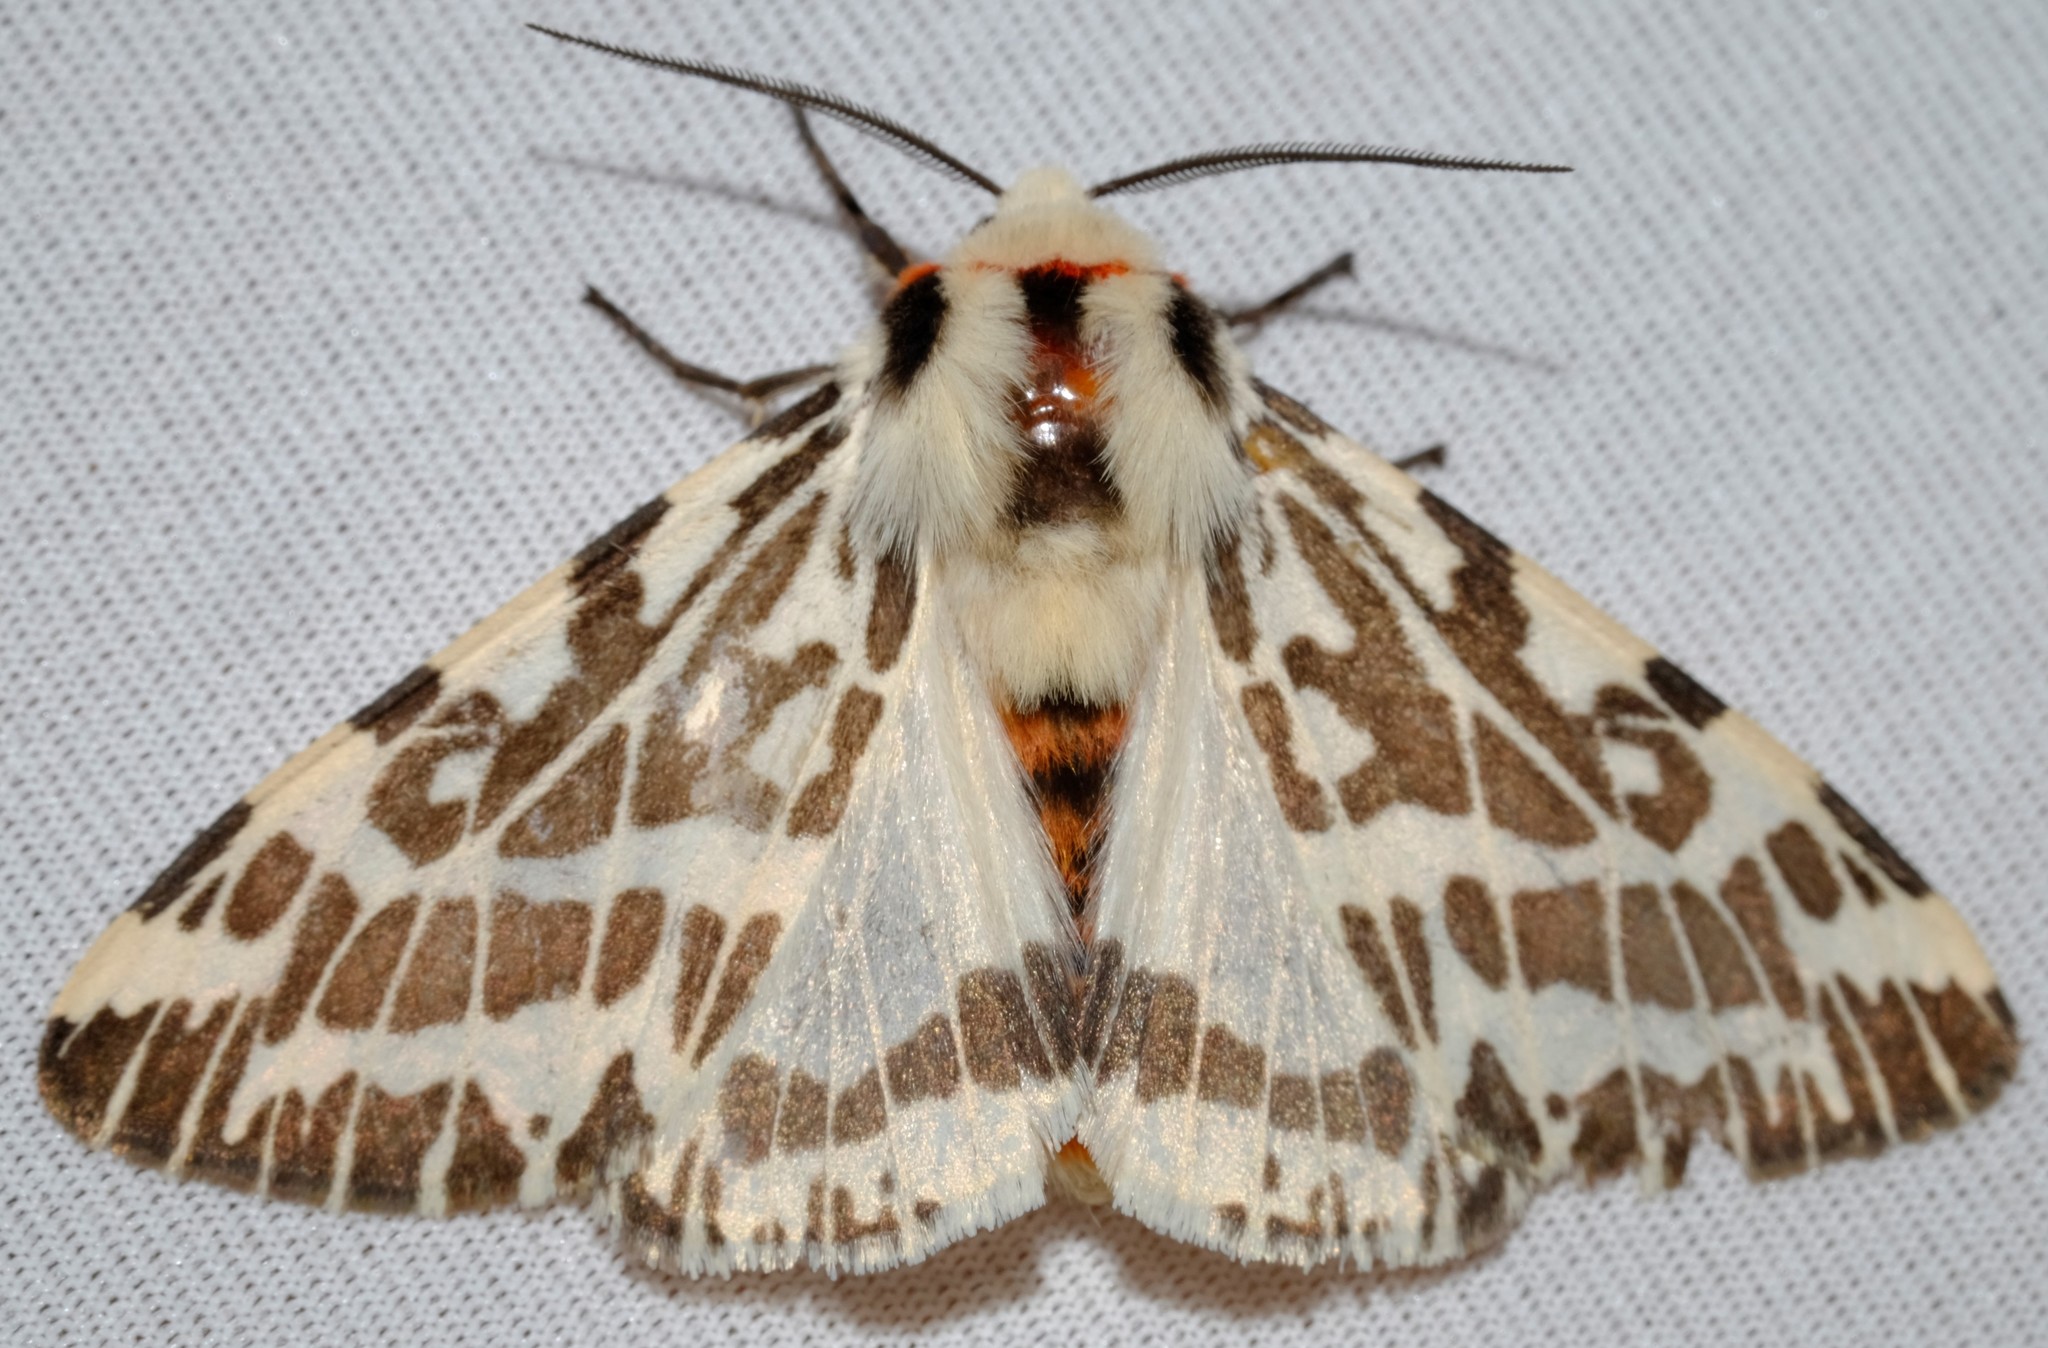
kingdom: Animalia
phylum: Arthropoda
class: Insecta
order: Lepidoptera
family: Erebidae
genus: Ardices
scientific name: Ardices glatignyi
